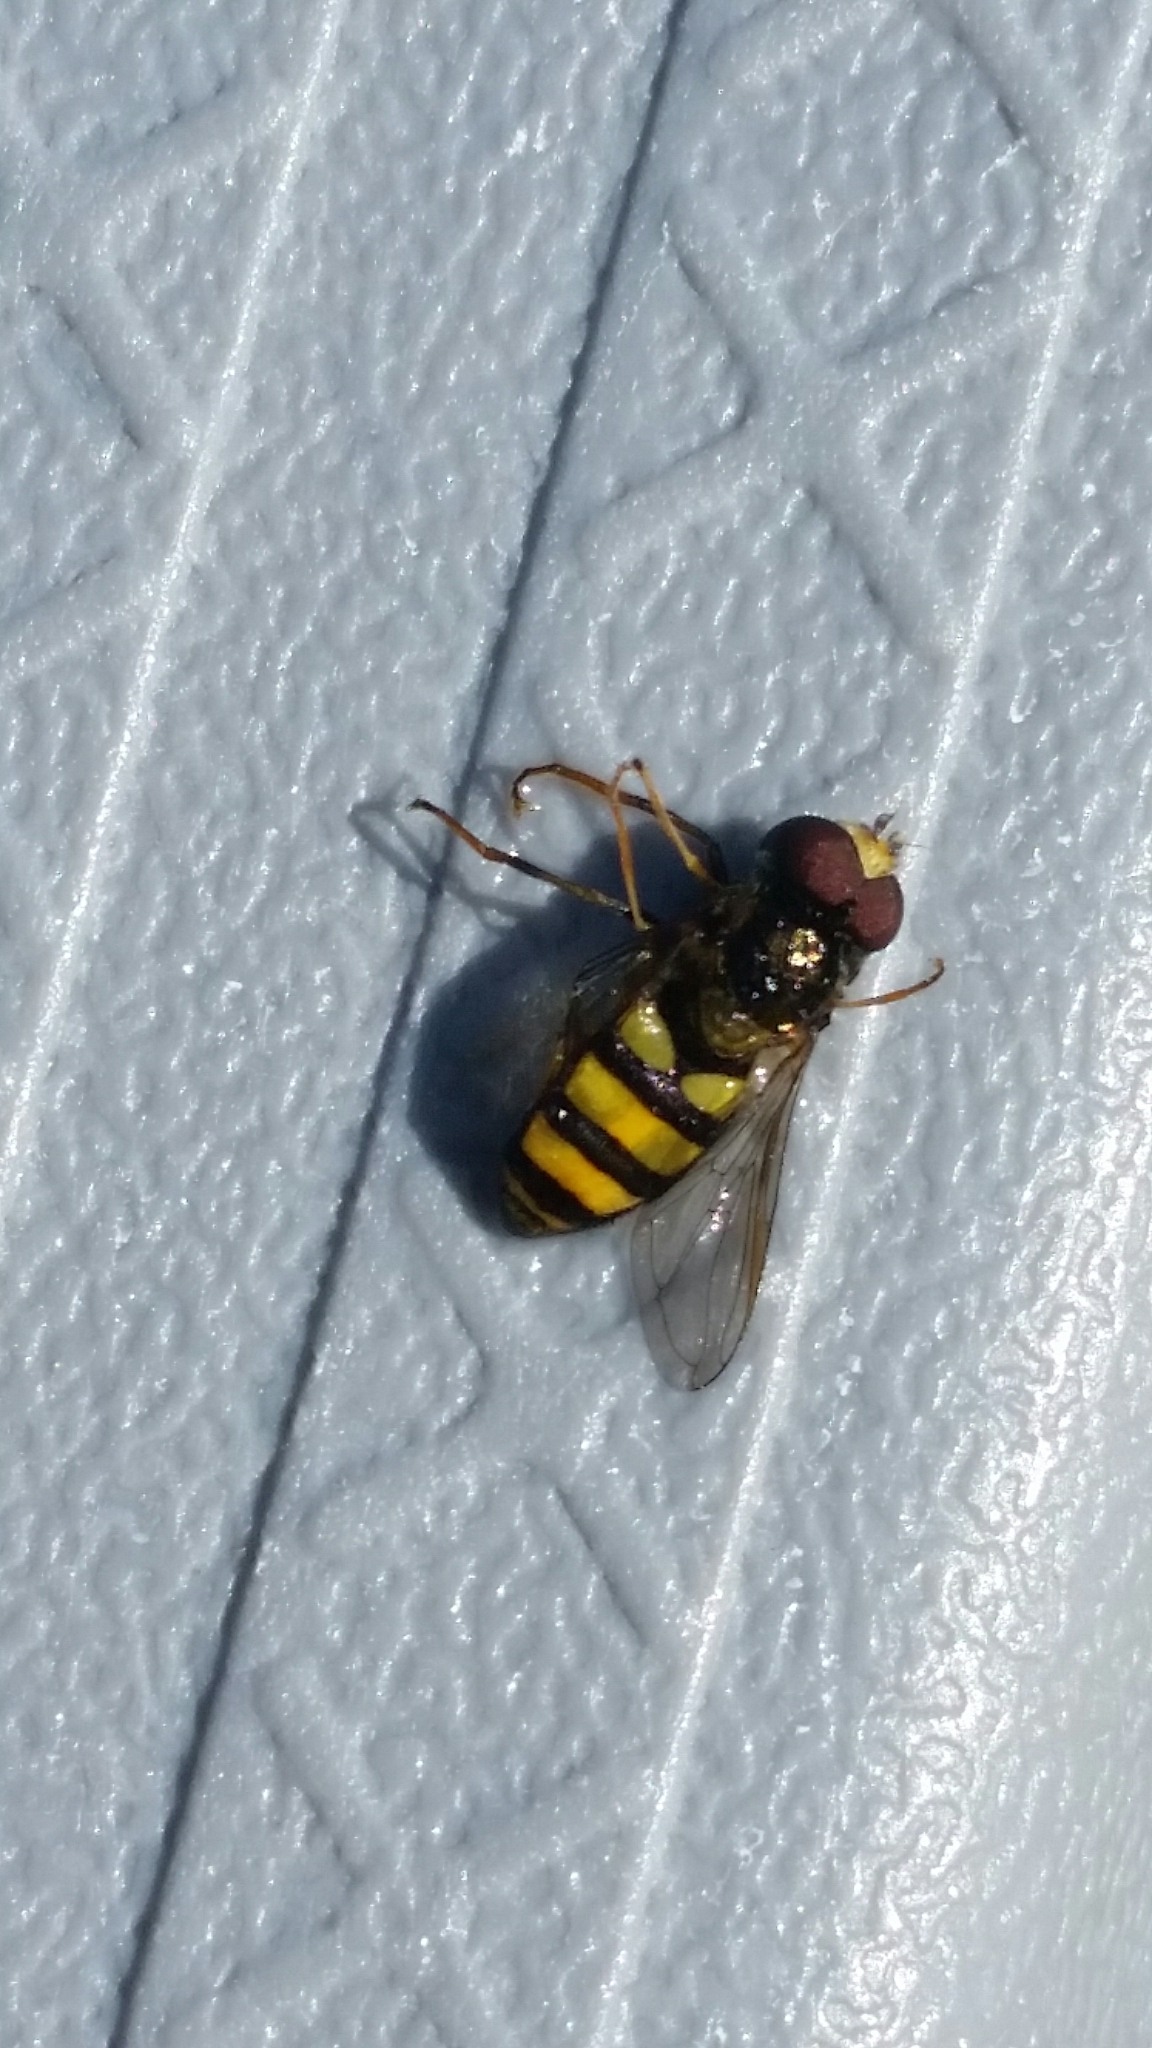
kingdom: Animalia
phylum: Arthropoda
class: Insecta
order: Diptera
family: Syrphidae
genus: Eupeodes
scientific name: Eupeodes
